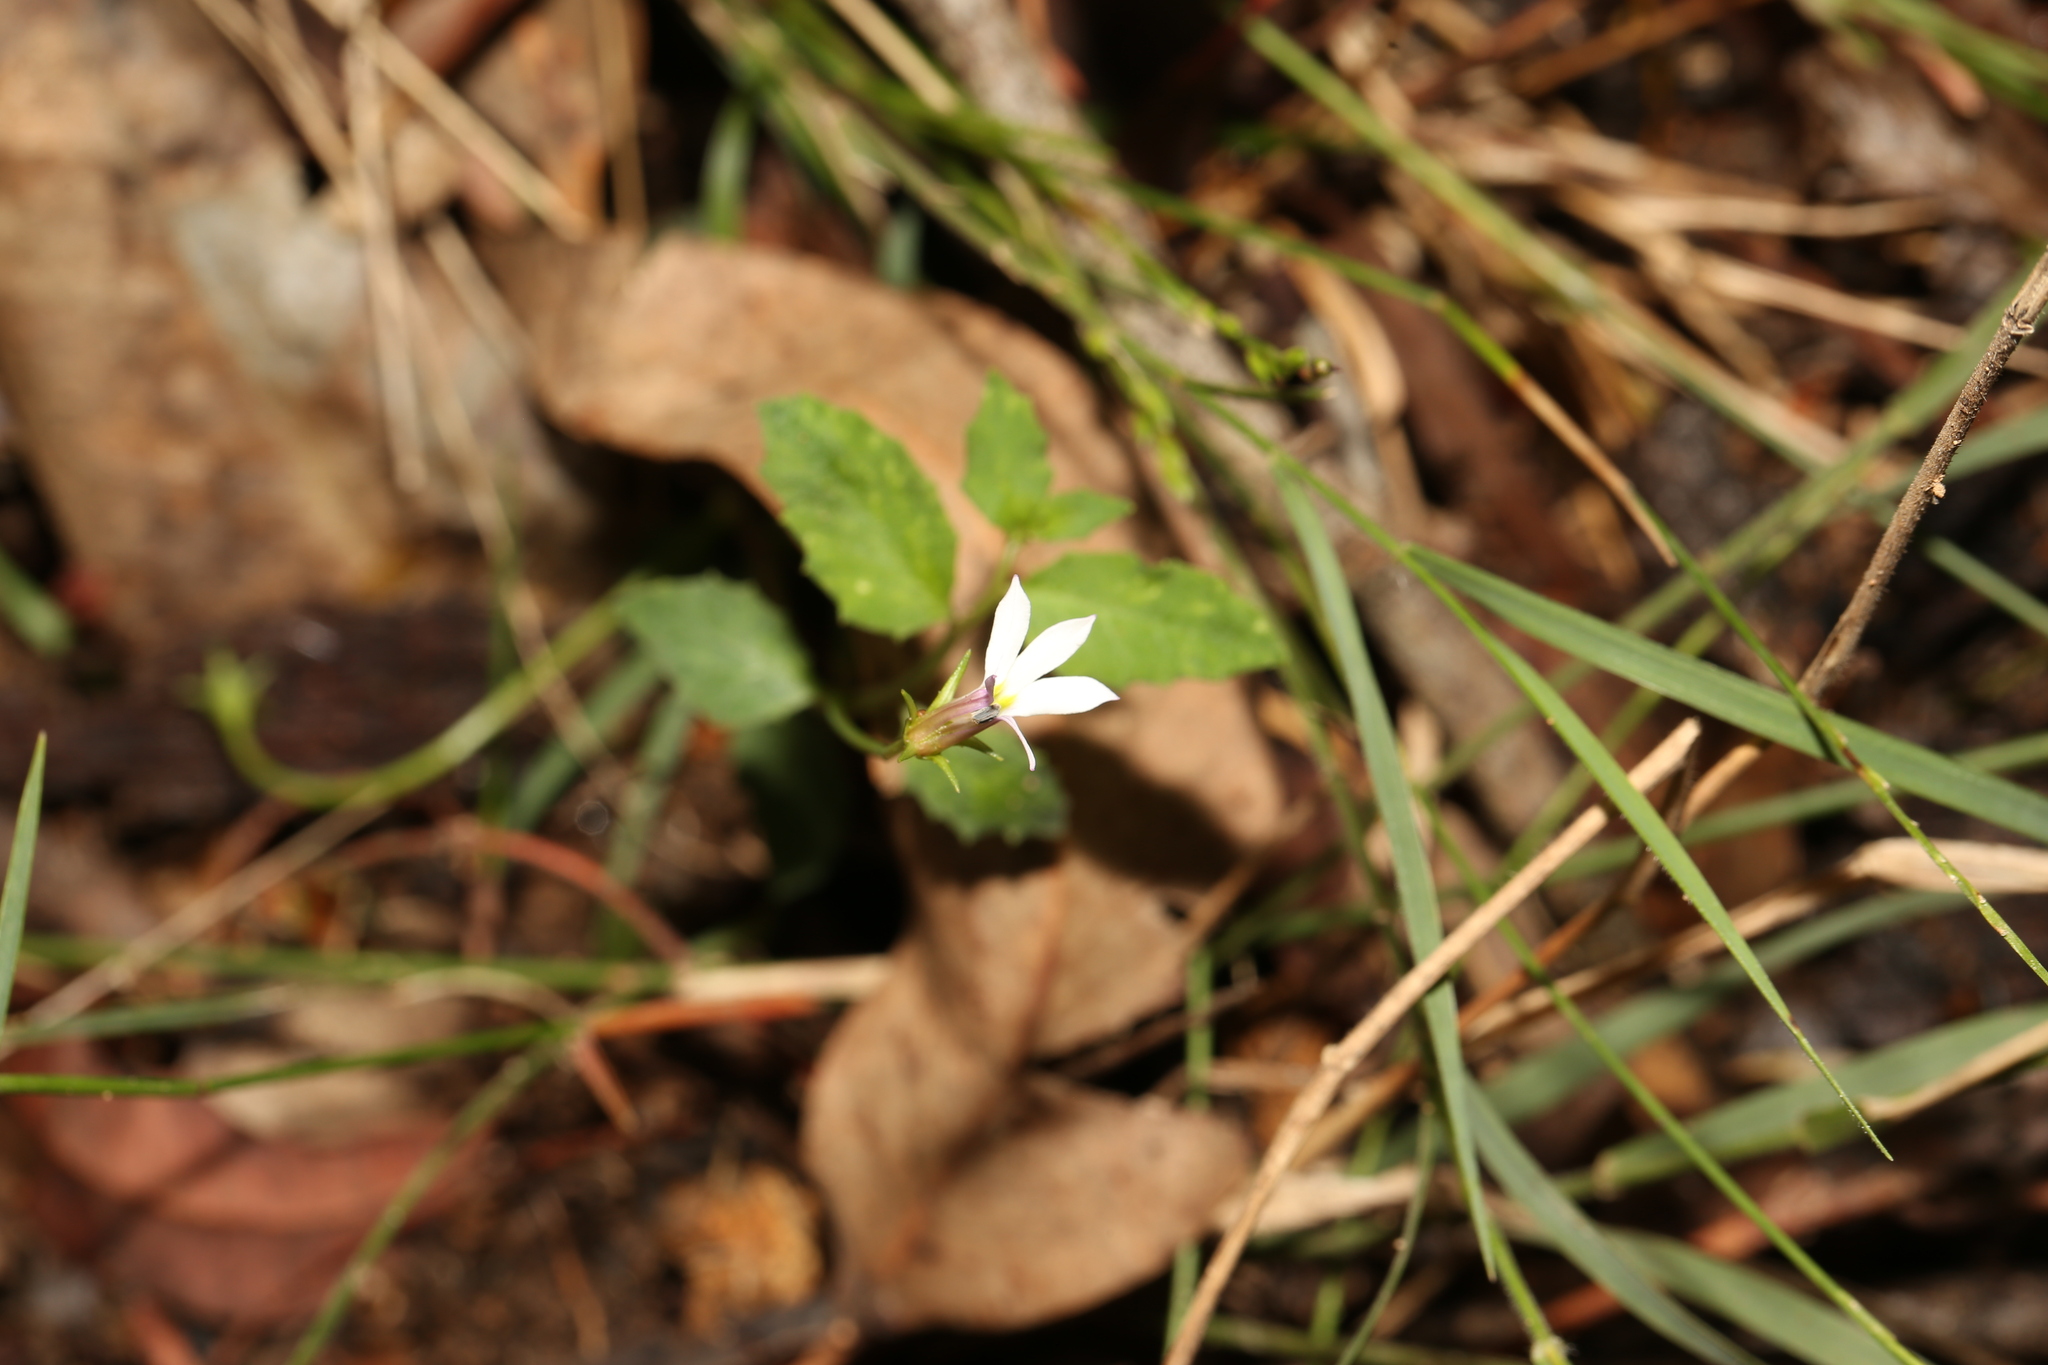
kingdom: Plantae
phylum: Tracheophyta
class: Magnoliopsida
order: Asterales
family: Campanulaceae
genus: Lobelia
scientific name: Lobelia purpurascens
